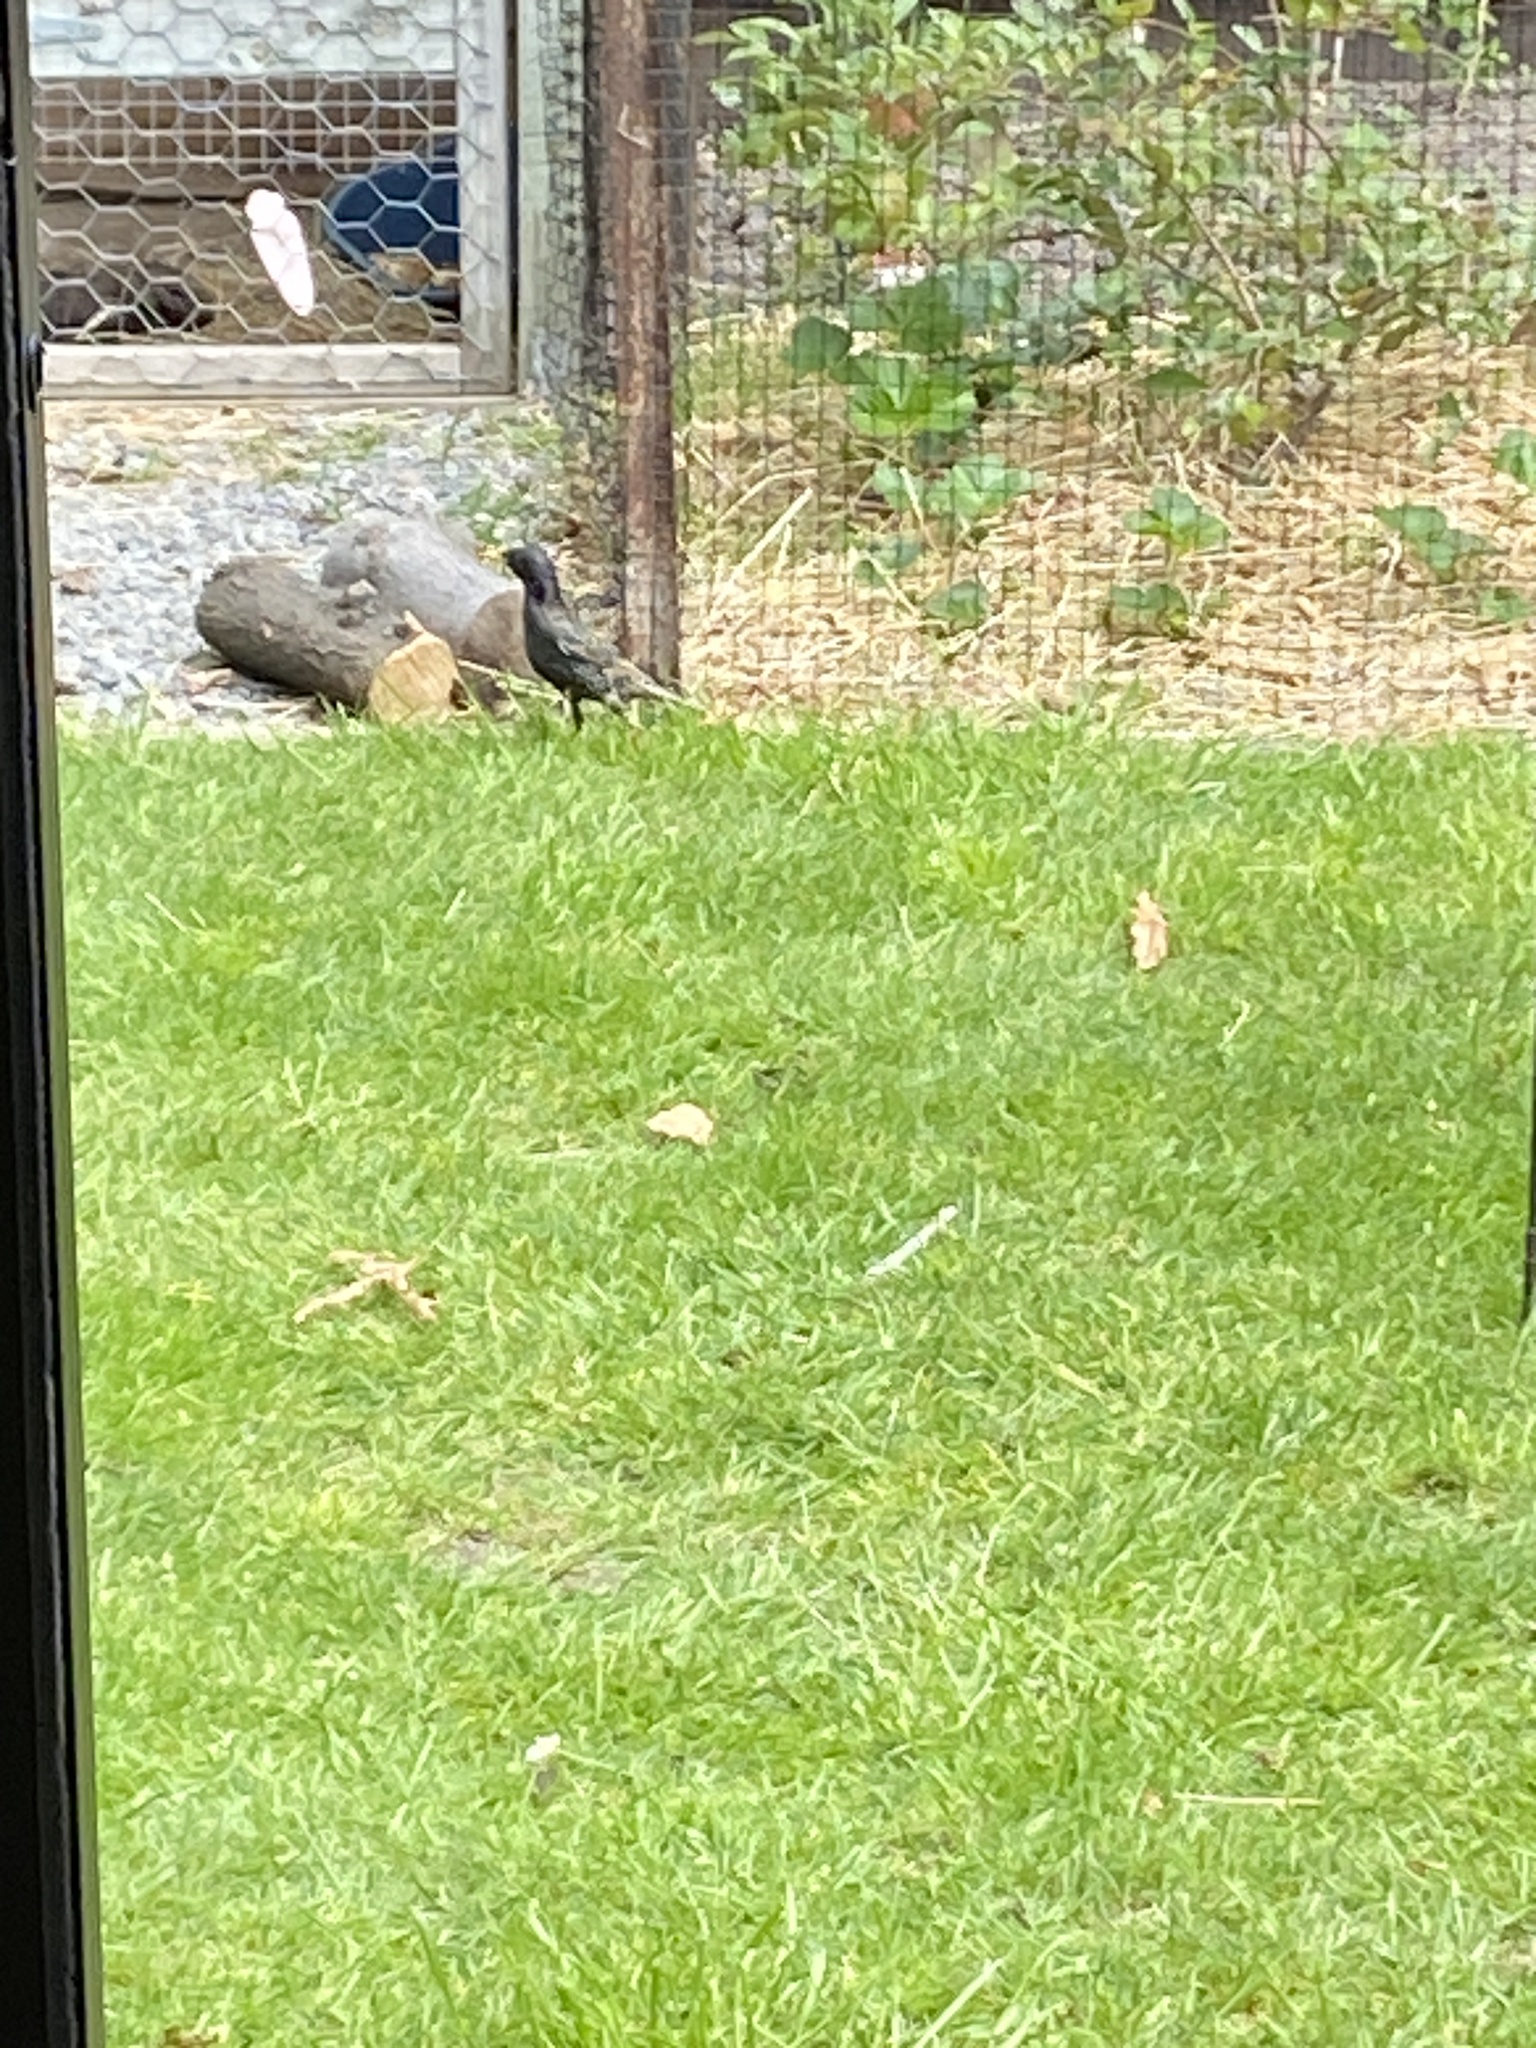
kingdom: Animalia
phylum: Chordata
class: Aves
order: Passeriformes
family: Sturnidae
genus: Sturnus
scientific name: Sturnus vulgaris
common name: Common starling
